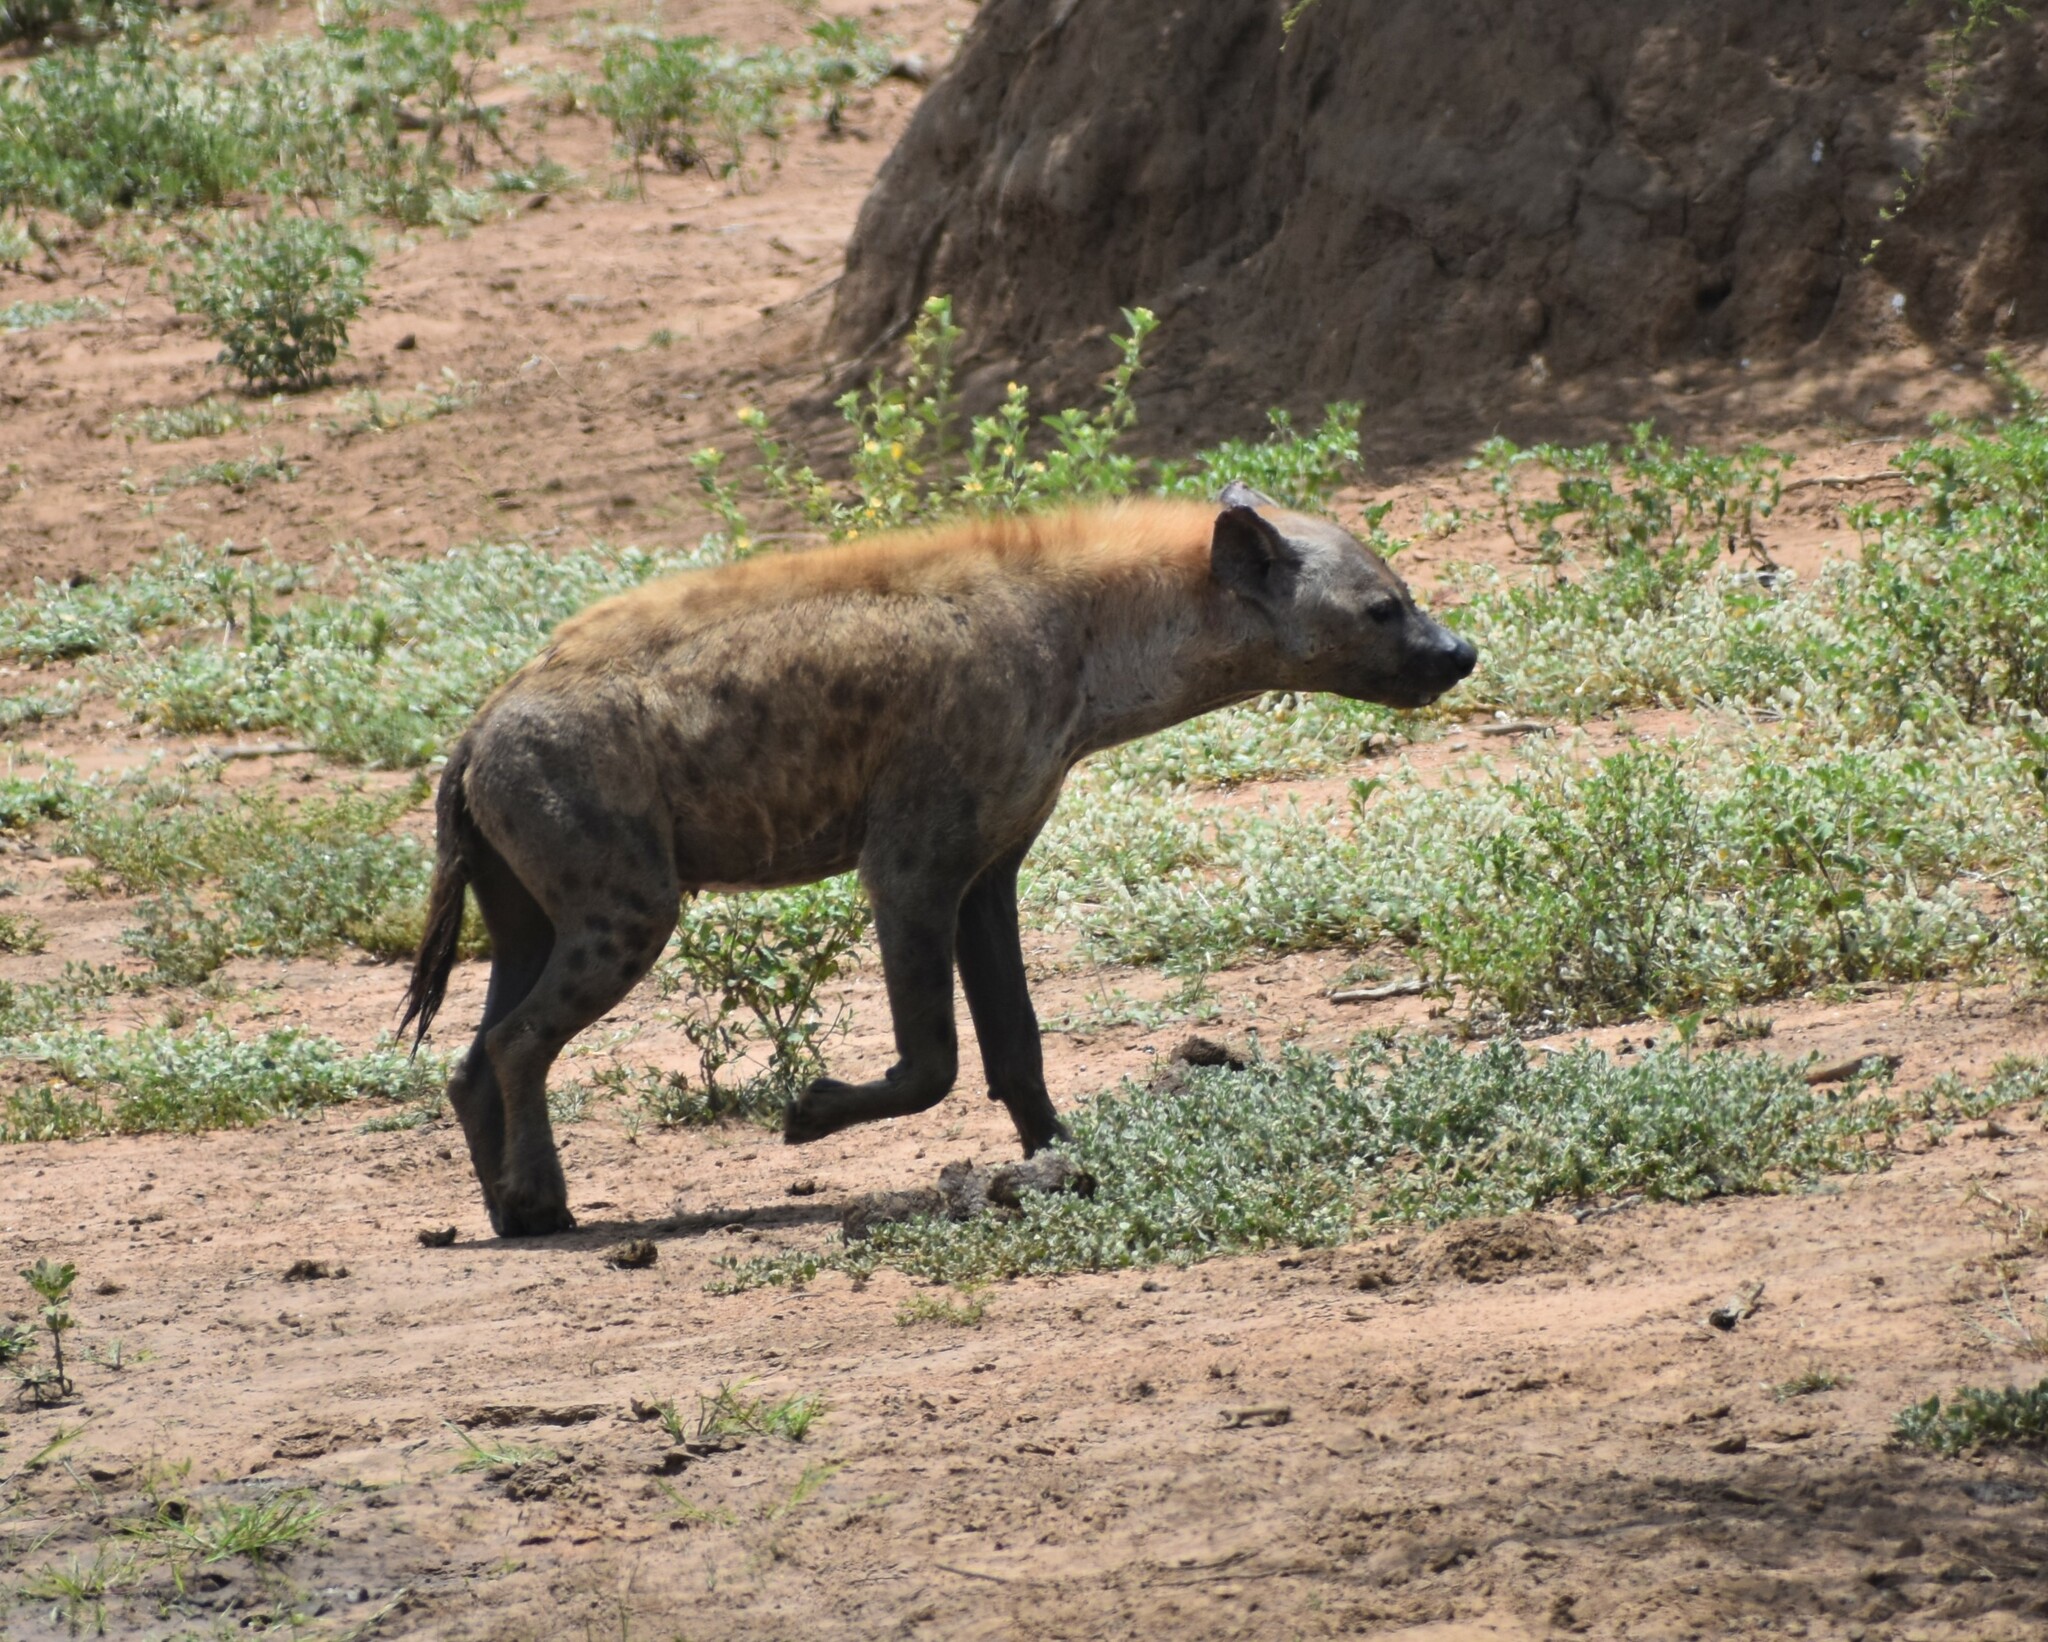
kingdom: Animalia
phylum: Chordata
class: Mammalia
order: Carnivora
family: Hyaenidae
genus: Crocuta
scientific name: Crocuta crocuta
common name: Spotted hyaena
